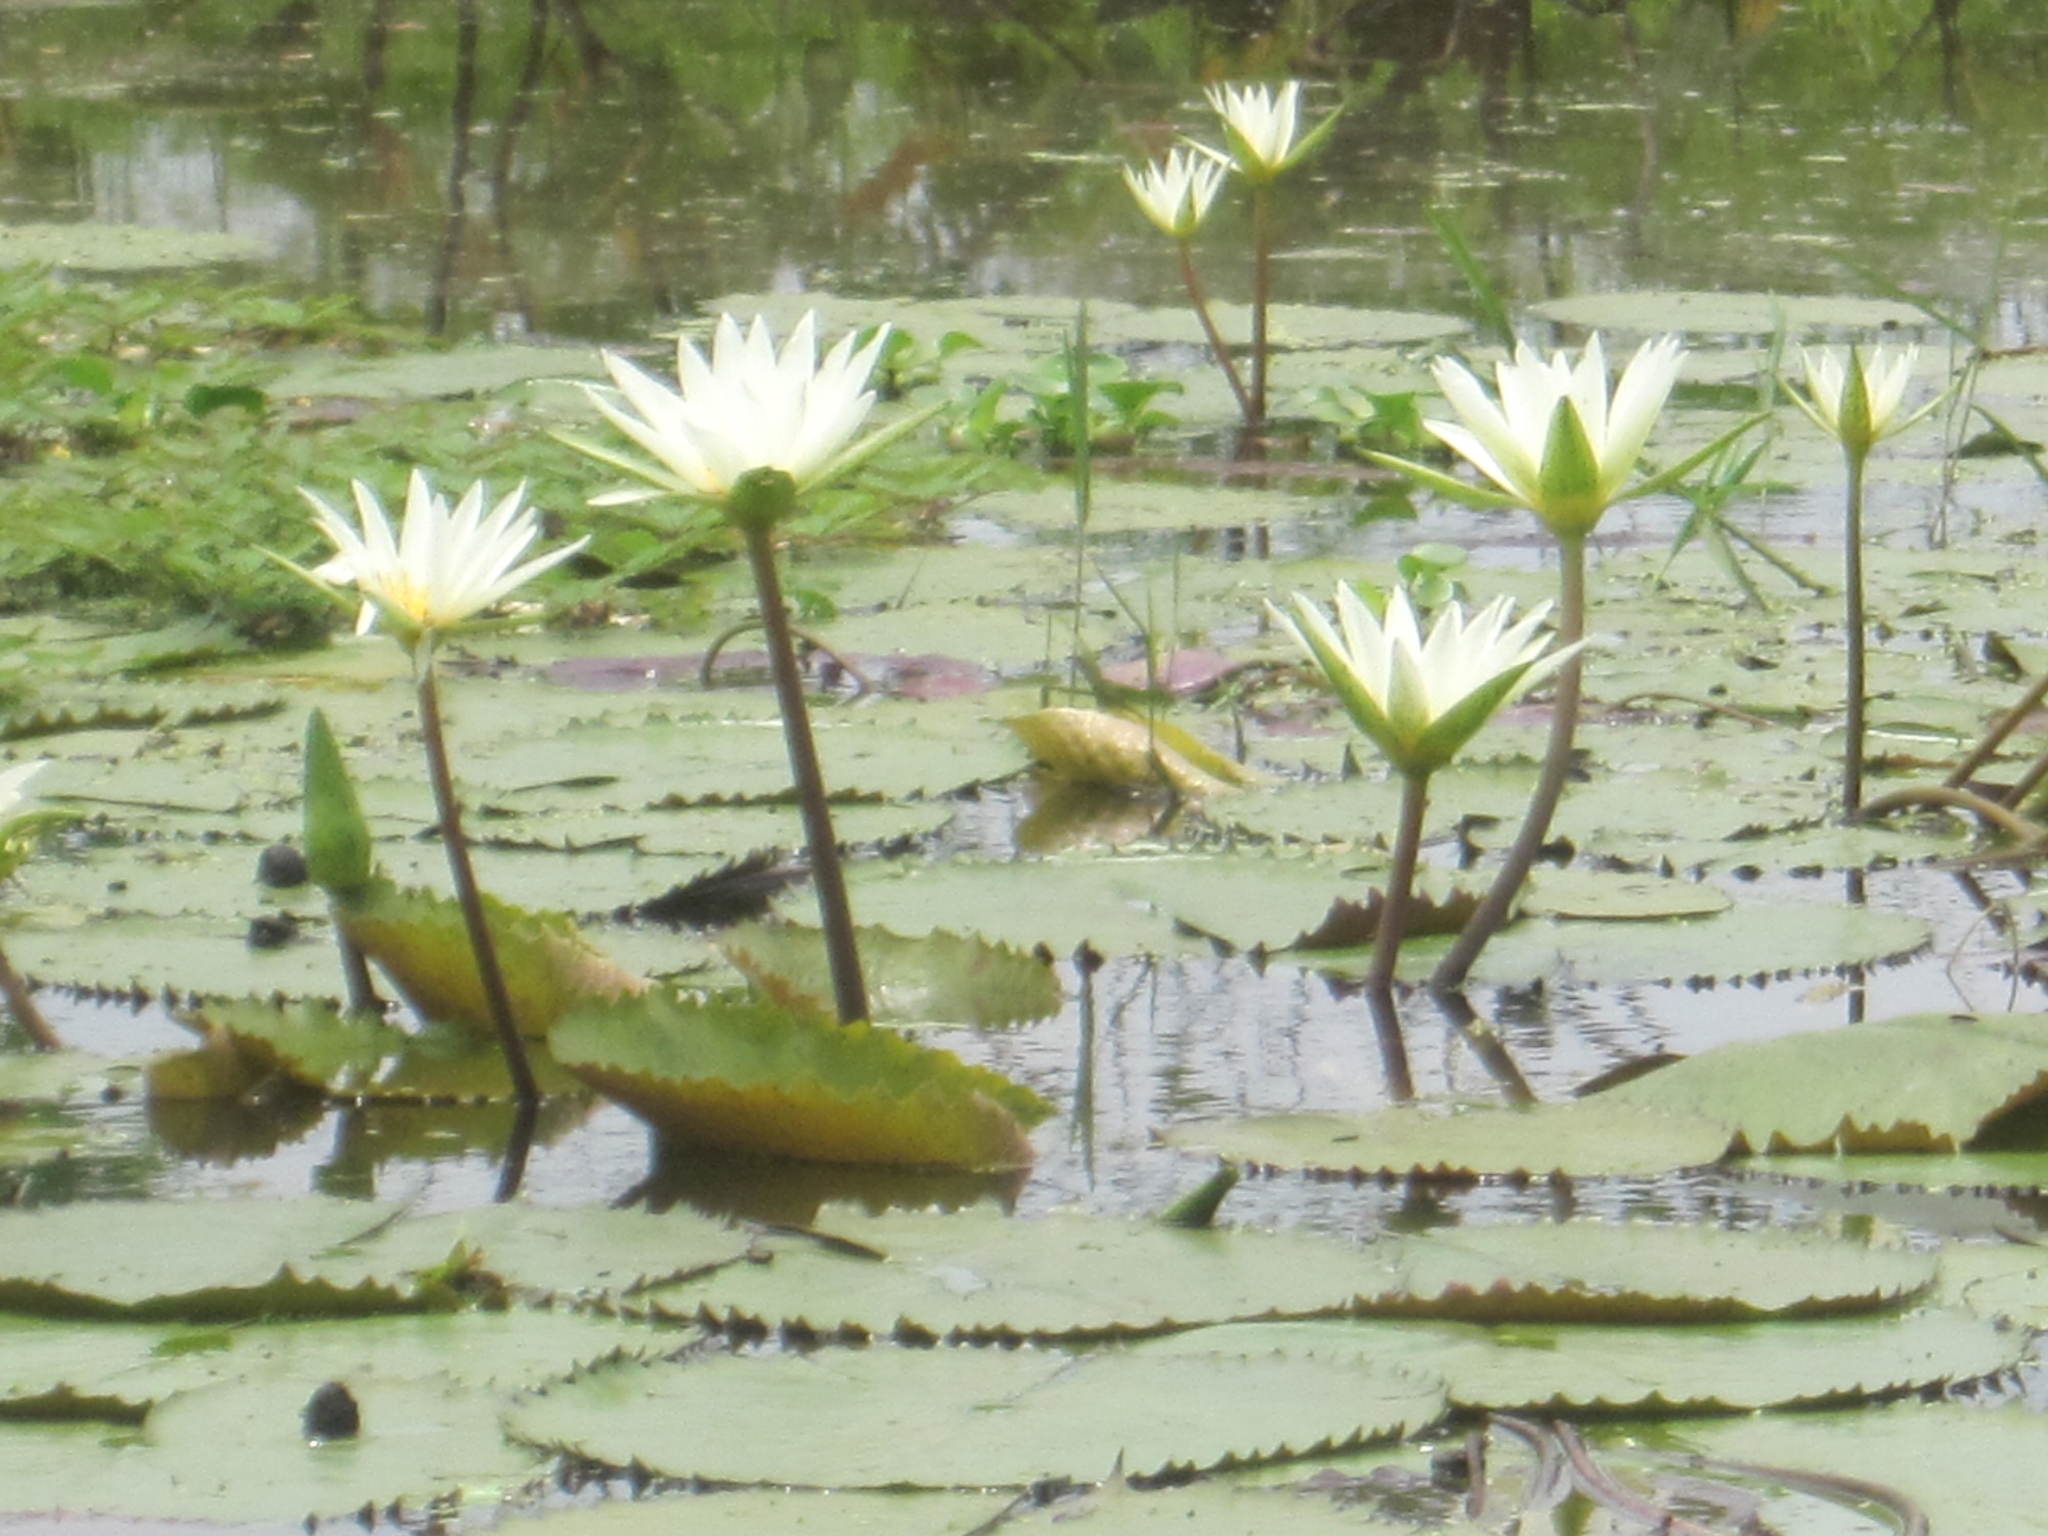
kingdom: Plantae
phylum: Tracheophyta
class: Magnoliopsida
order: Nymphaeales
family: Nymphaeaceae
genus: Nymphaea
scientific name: Nymphaea ampla
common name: Dotleaf waterlily
